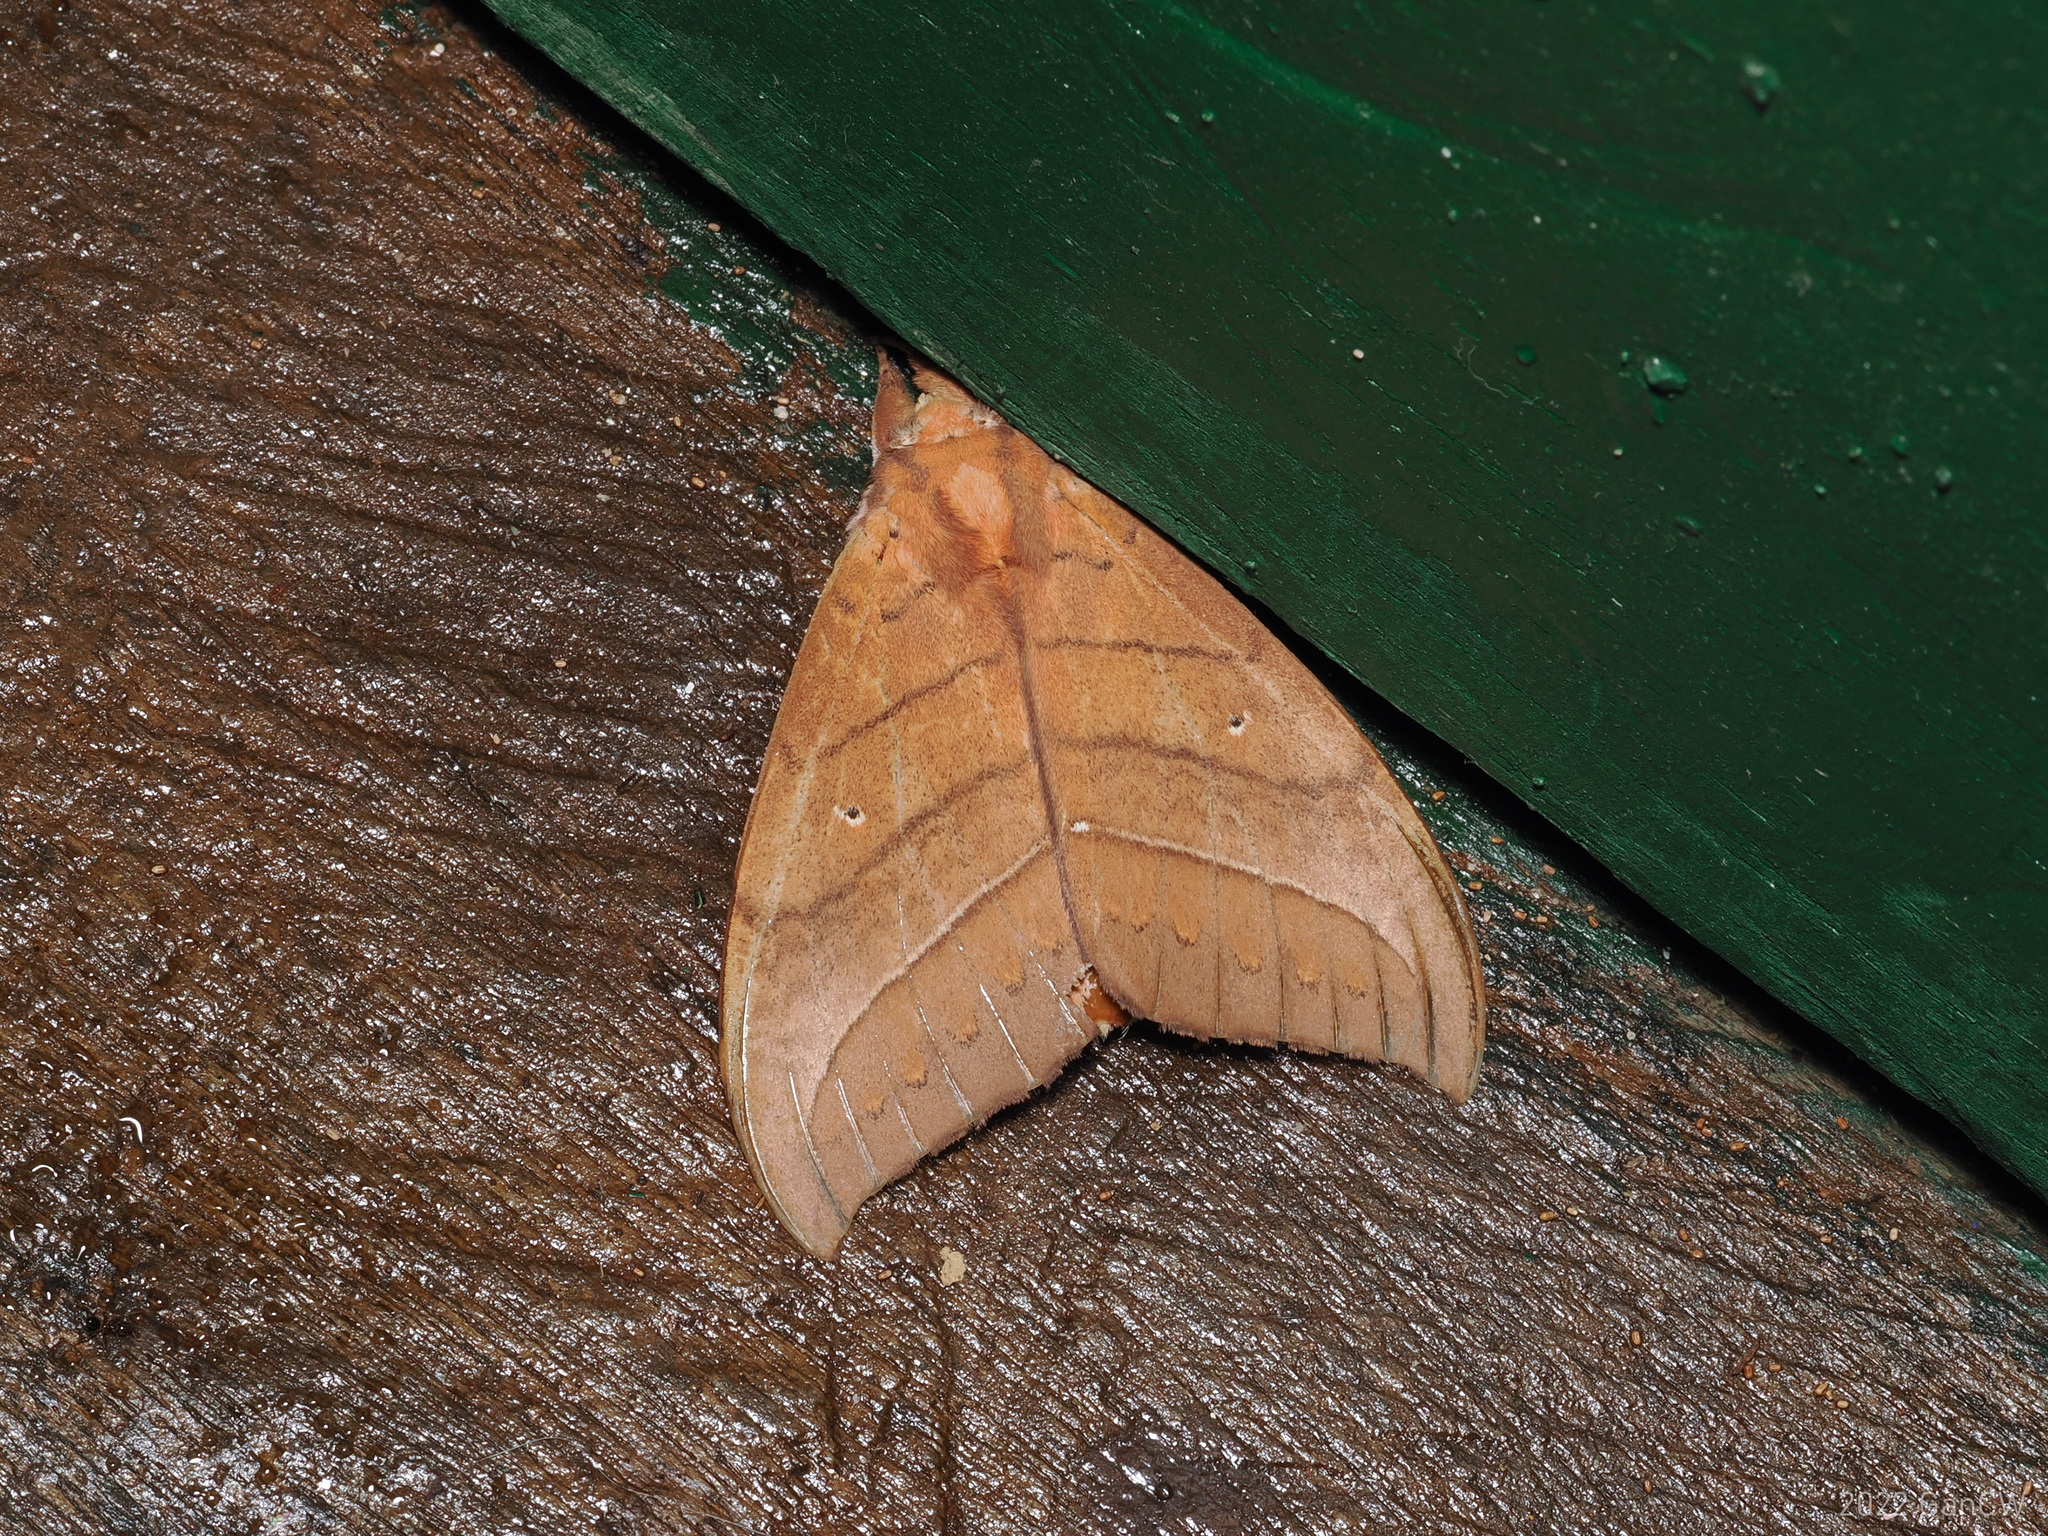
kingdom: Animalia
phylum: Arthropoda
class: Insecta
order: Lepidoptera
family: Notodontidae
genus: Gangarides
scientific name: Gangarides rosea
